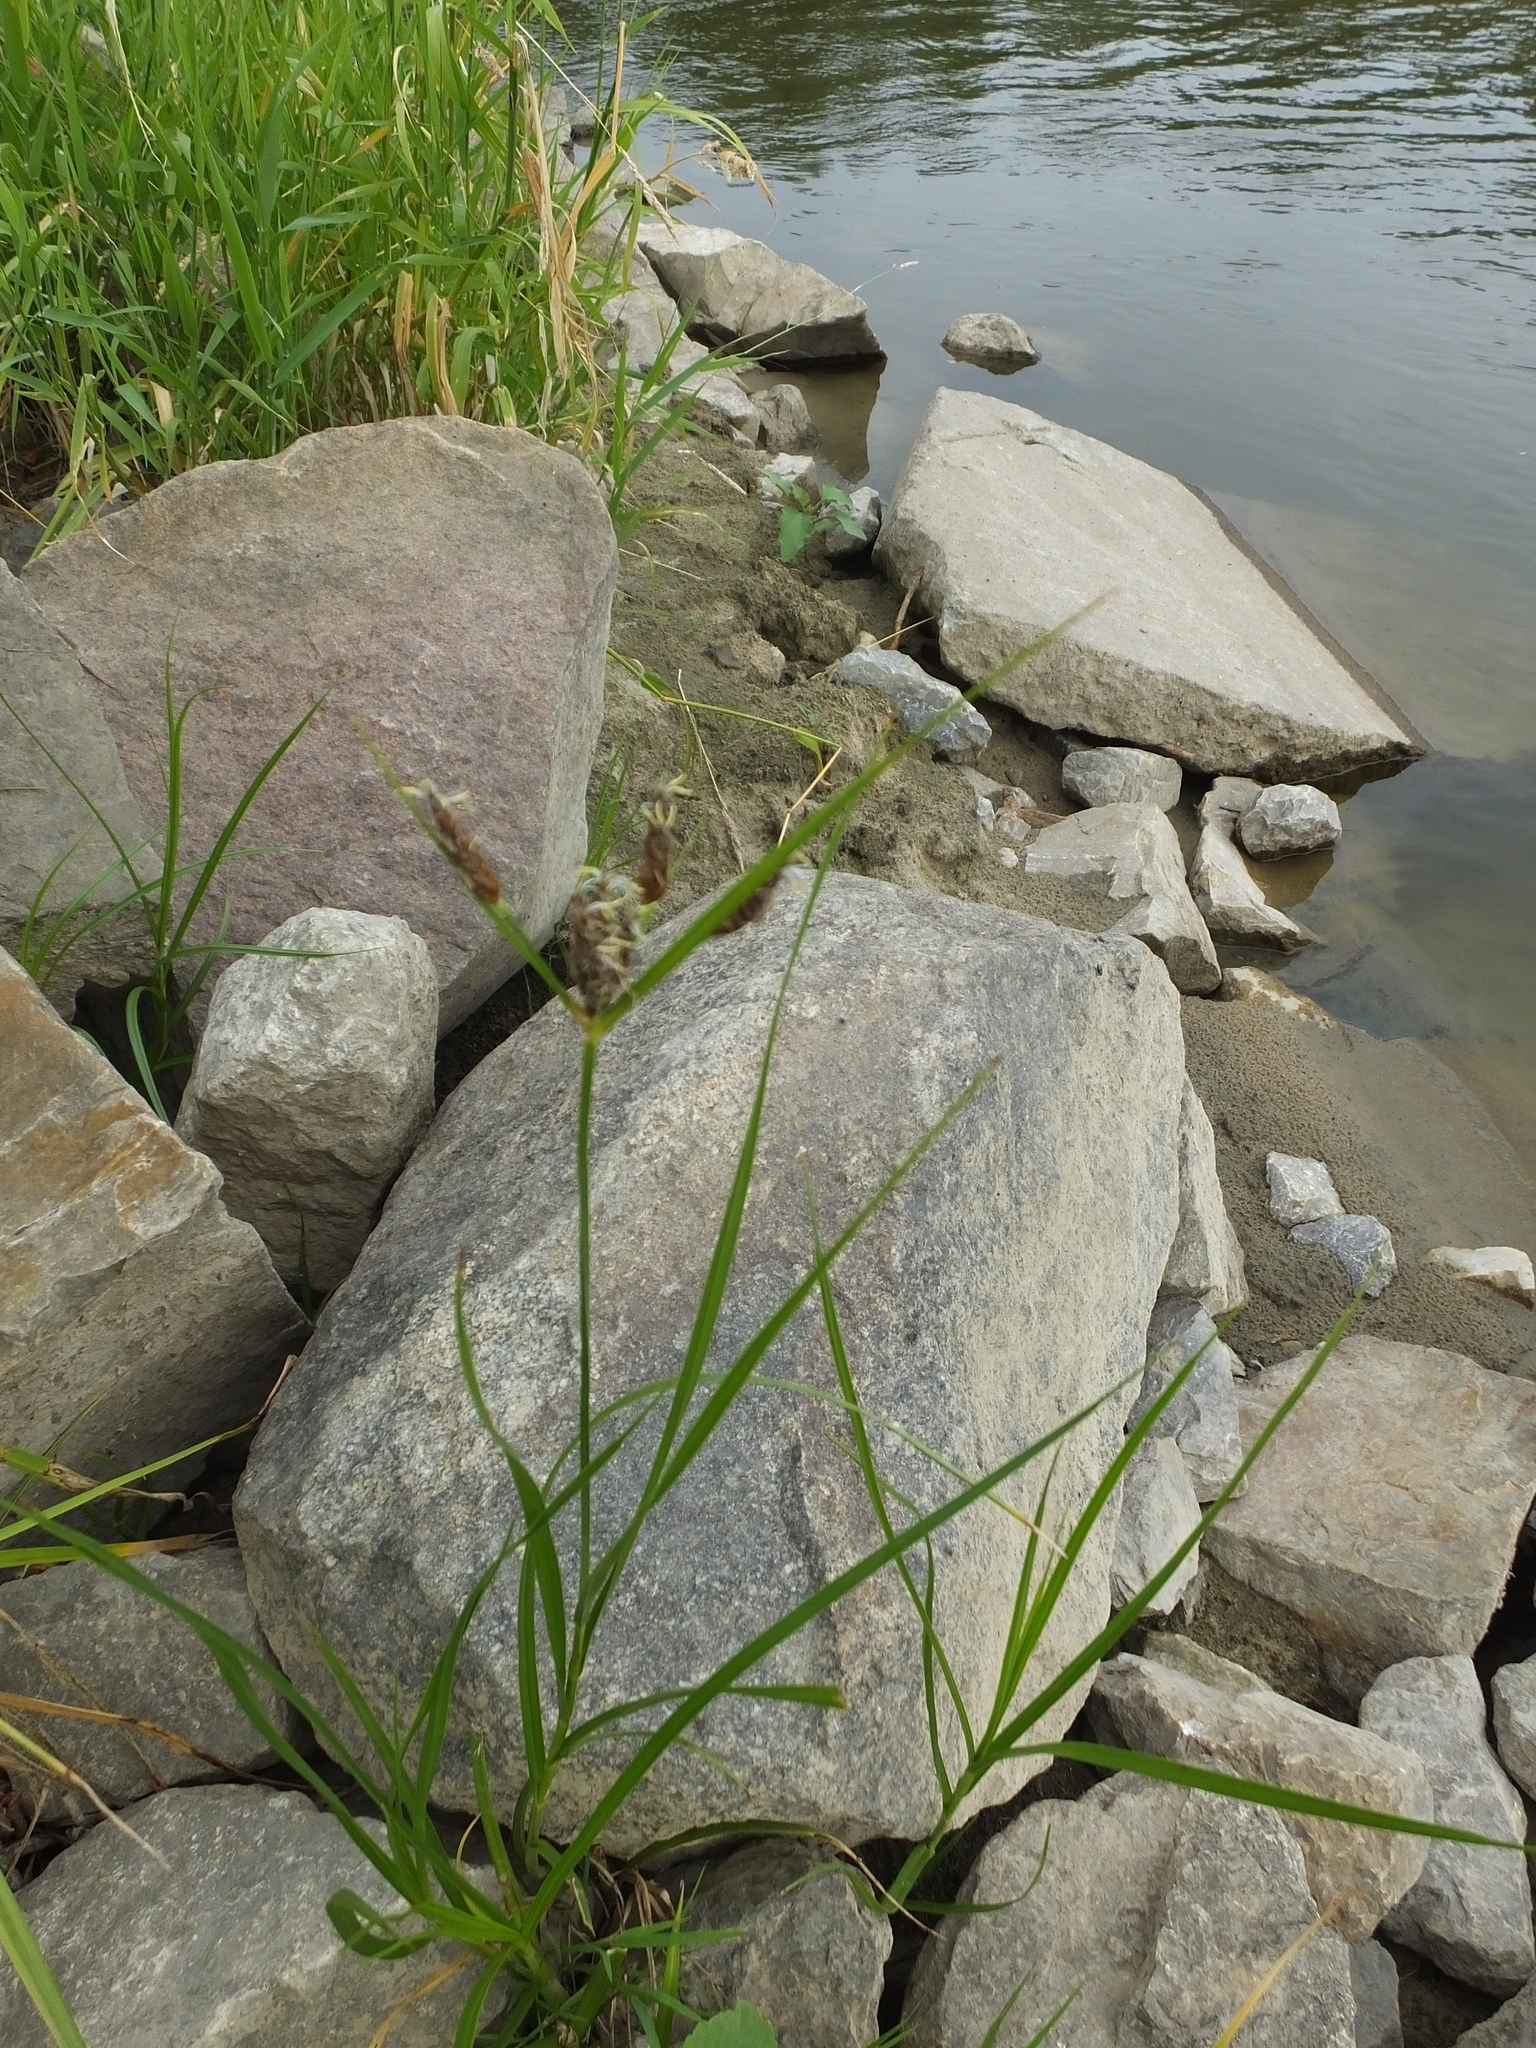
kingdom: Plantae
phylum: Tracheophyta
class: Liliopsida
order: Poales
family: Cyperaceae
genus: Bolboschoenus
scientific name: Bolboschoenus maritimus
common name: Sea club-rush
